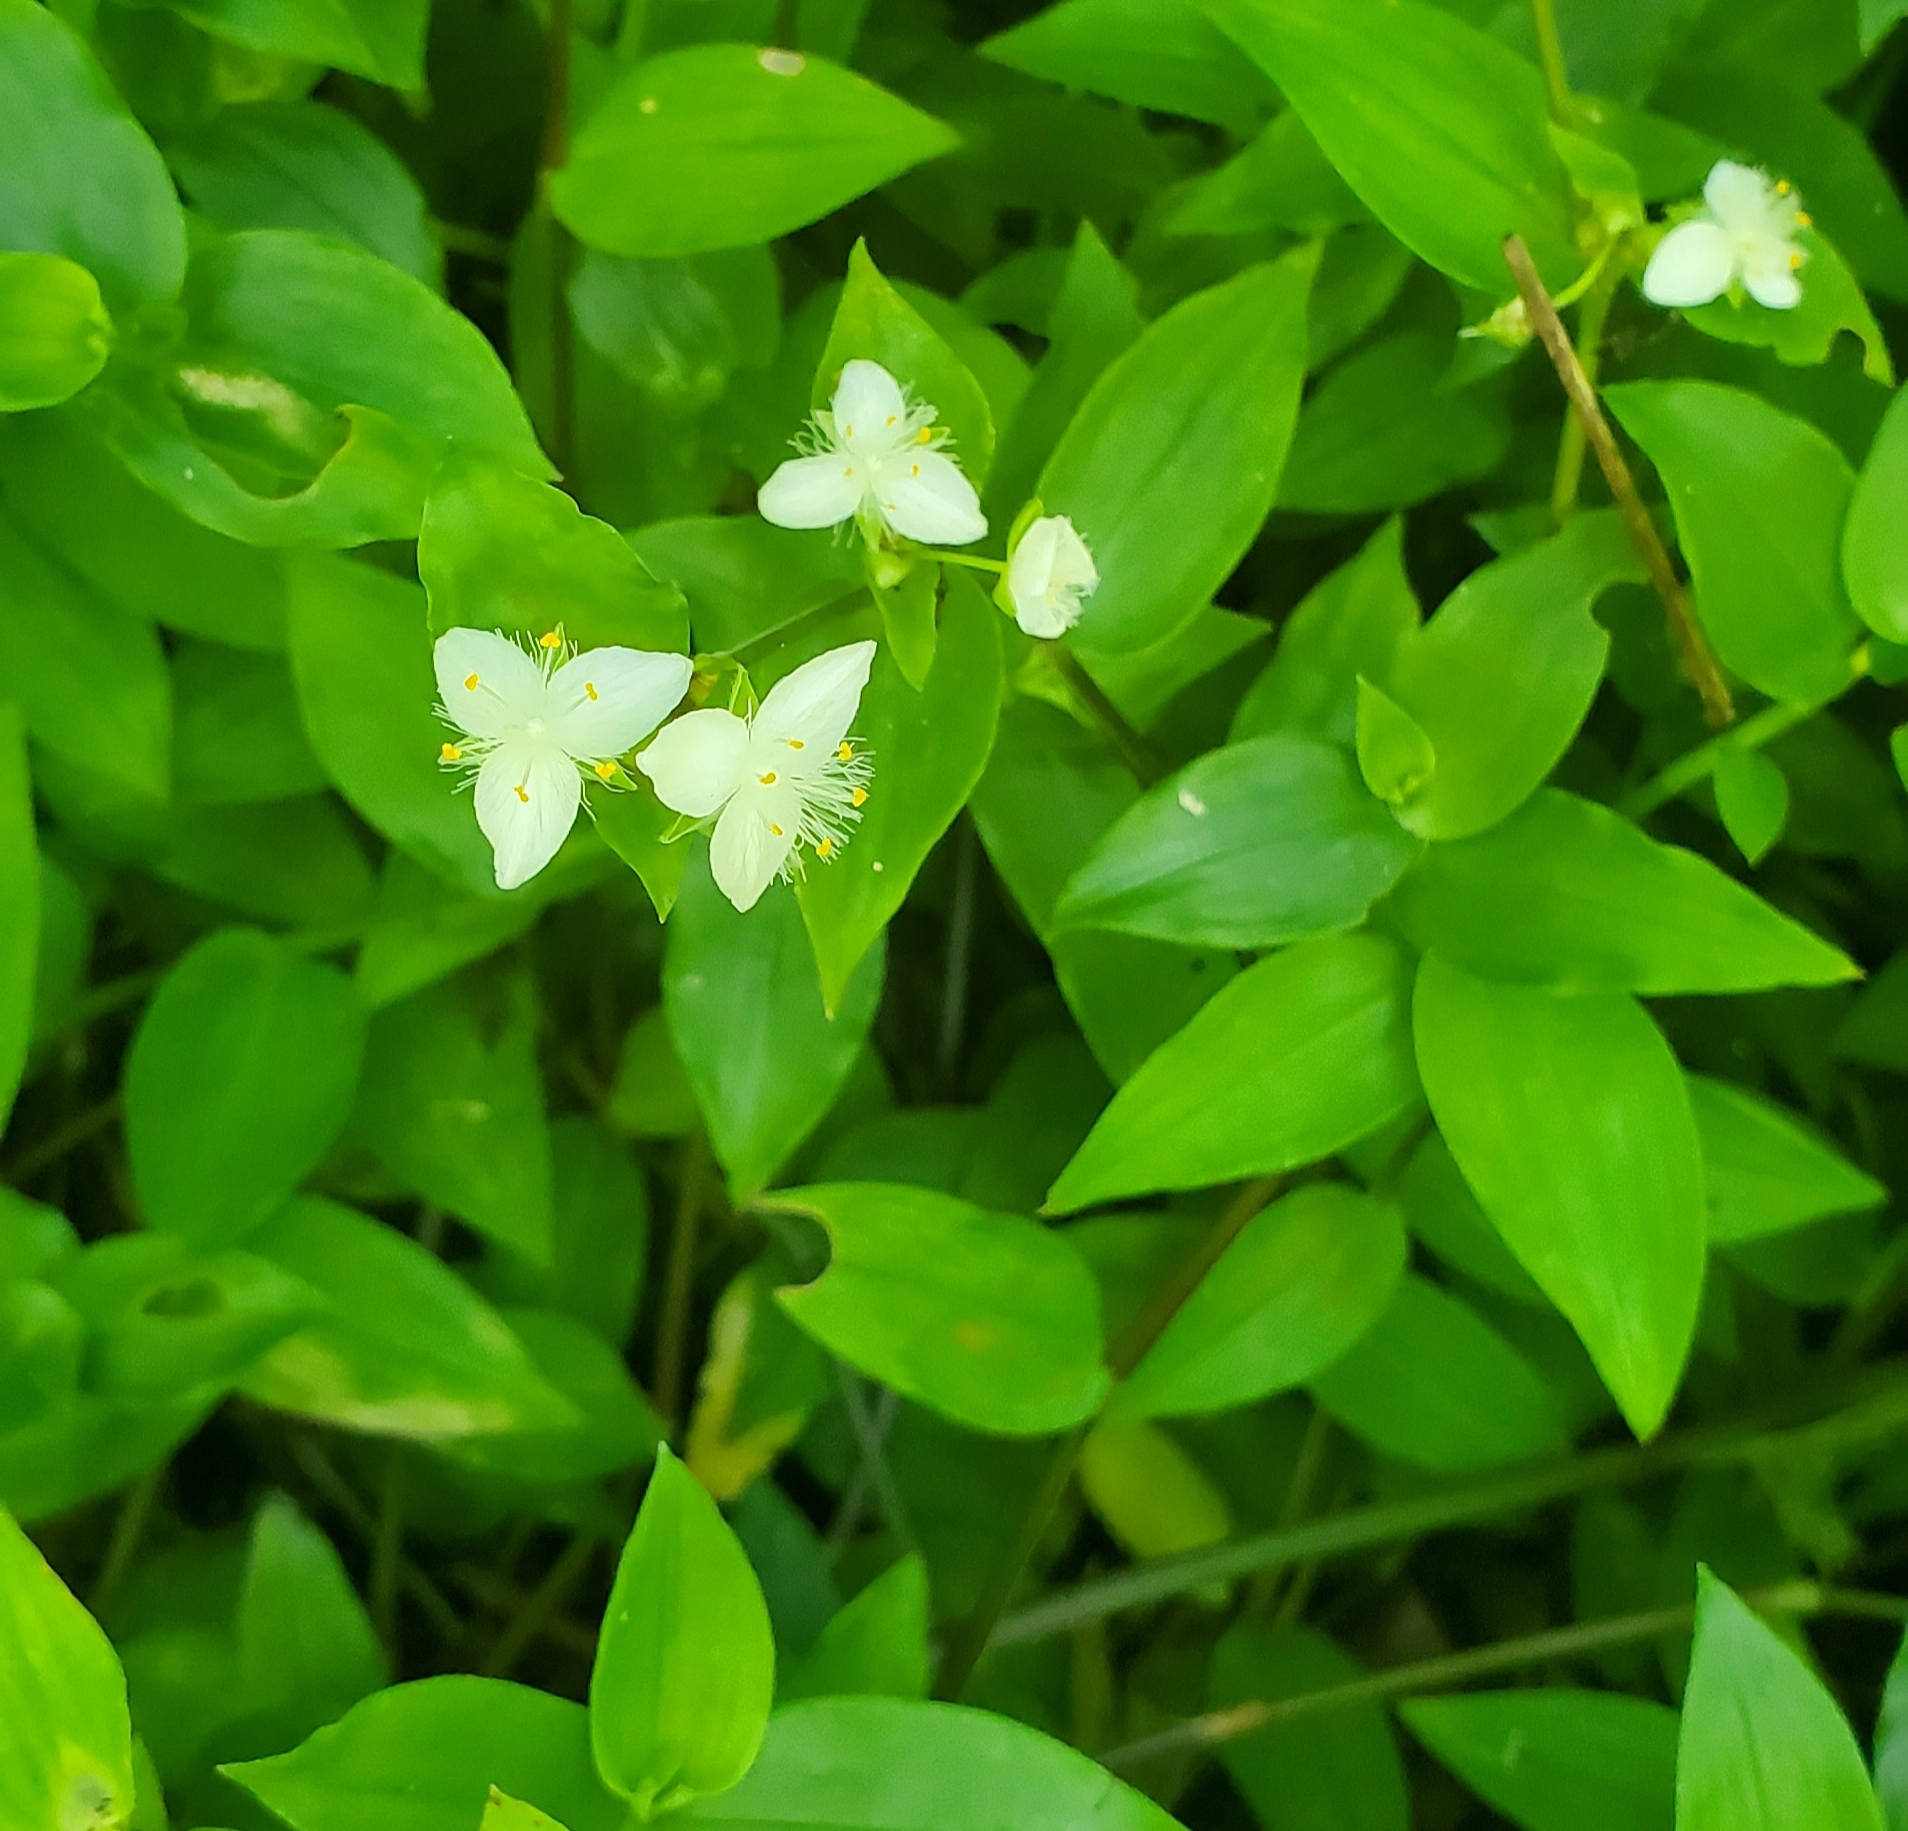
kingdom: Plantae
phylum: Tracheophyta
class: Liliopsida
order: Commelinales
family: Commelinaceae
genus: Tradescantia
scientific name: Tradescantia fluminensis
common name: Wandering-jew
